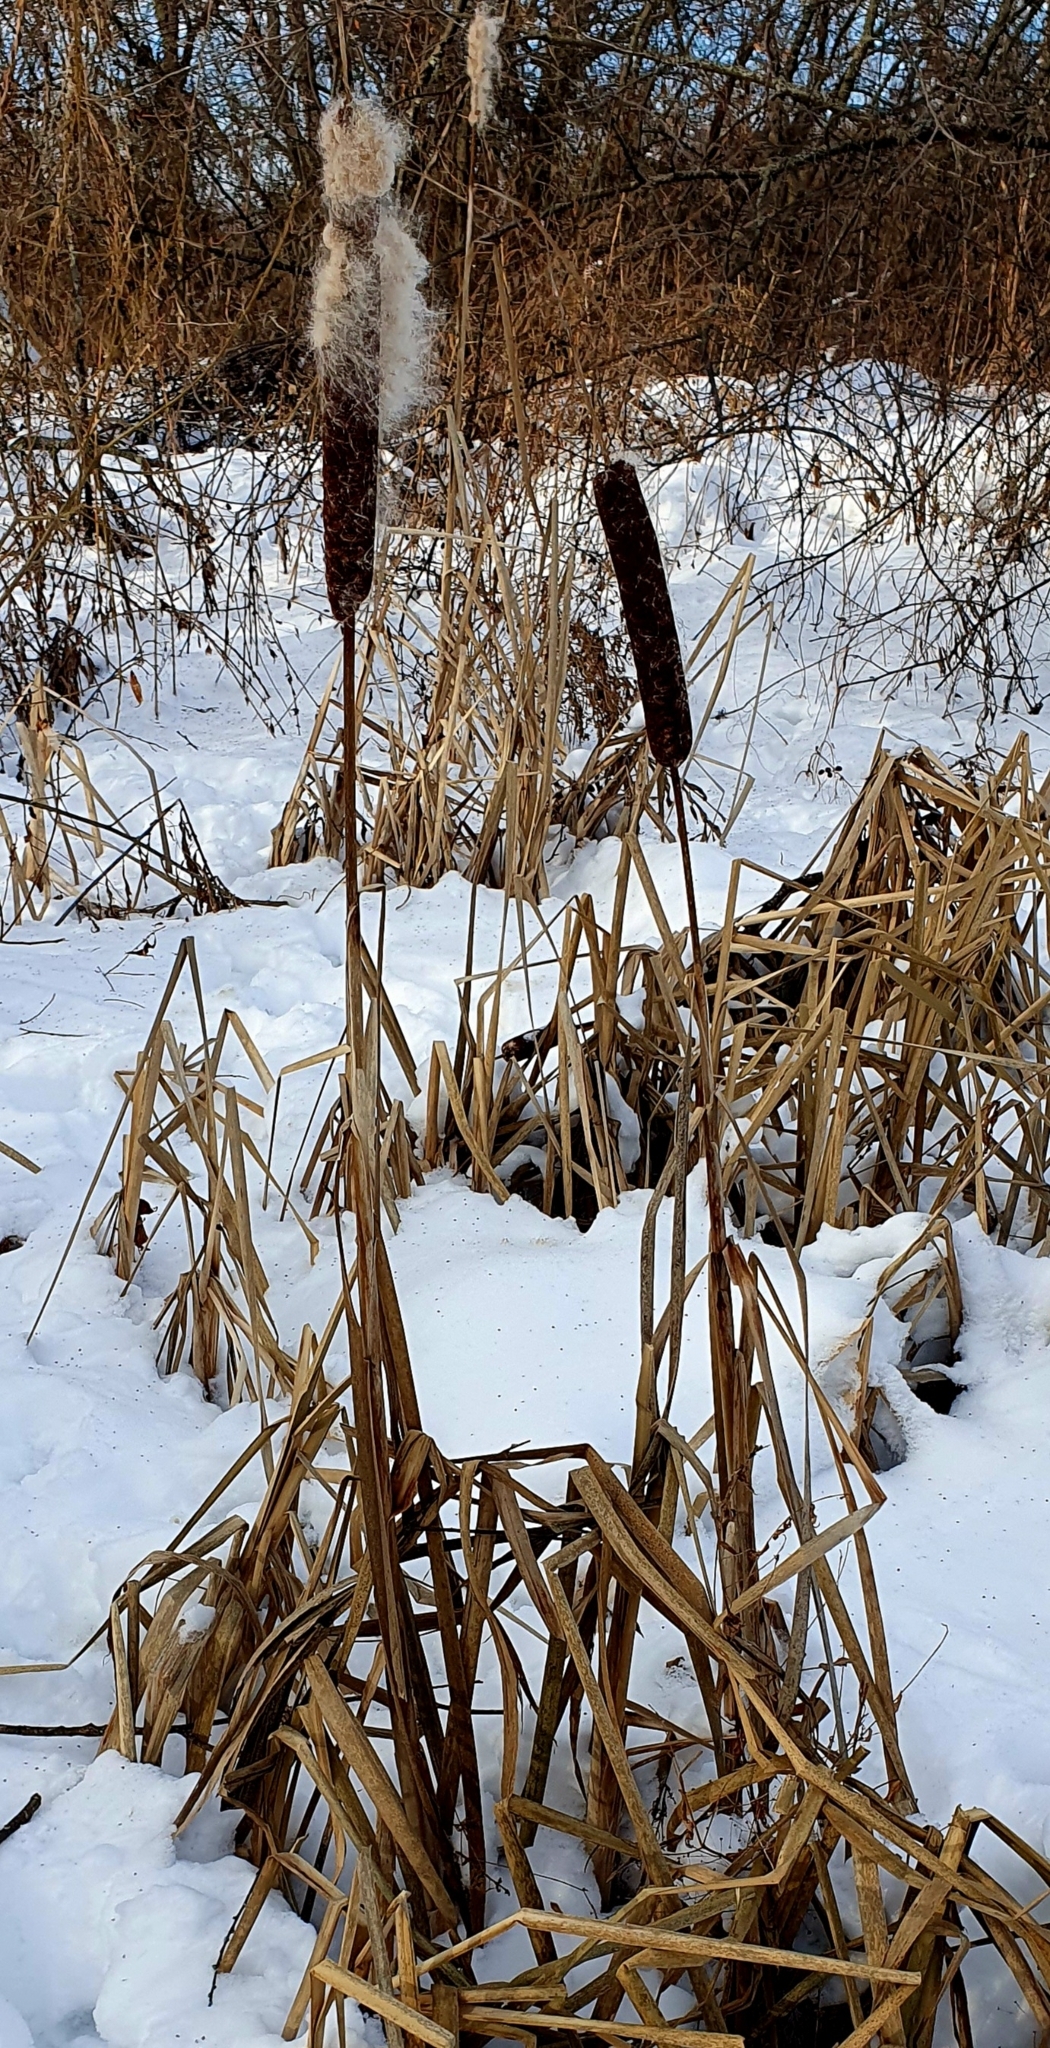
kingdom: Plantae
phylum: Tracheophyta
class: Liliopsida
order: Poales
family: Typhaceae
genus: Typha
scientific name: Typha latifolia
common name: Broadleaf cattail
